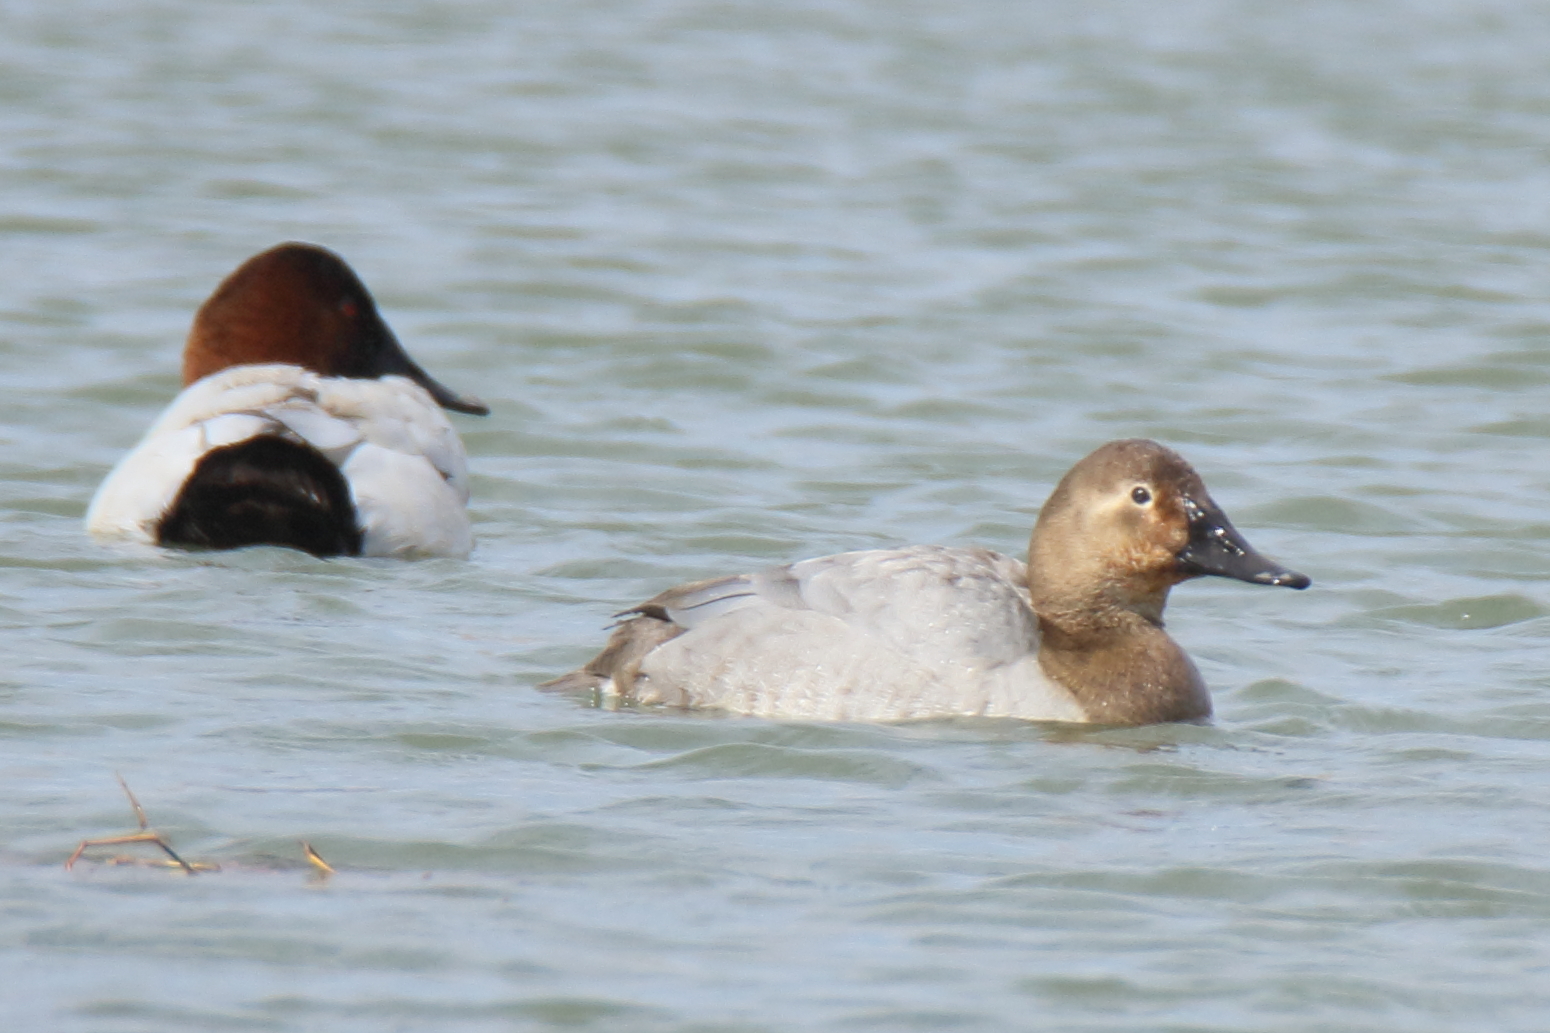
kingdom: Animalia
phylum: Chordata
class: Aves
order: Anseriformes
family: Anatidae
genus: Aythya
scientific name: Aythya valisineria
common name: Canvasback
